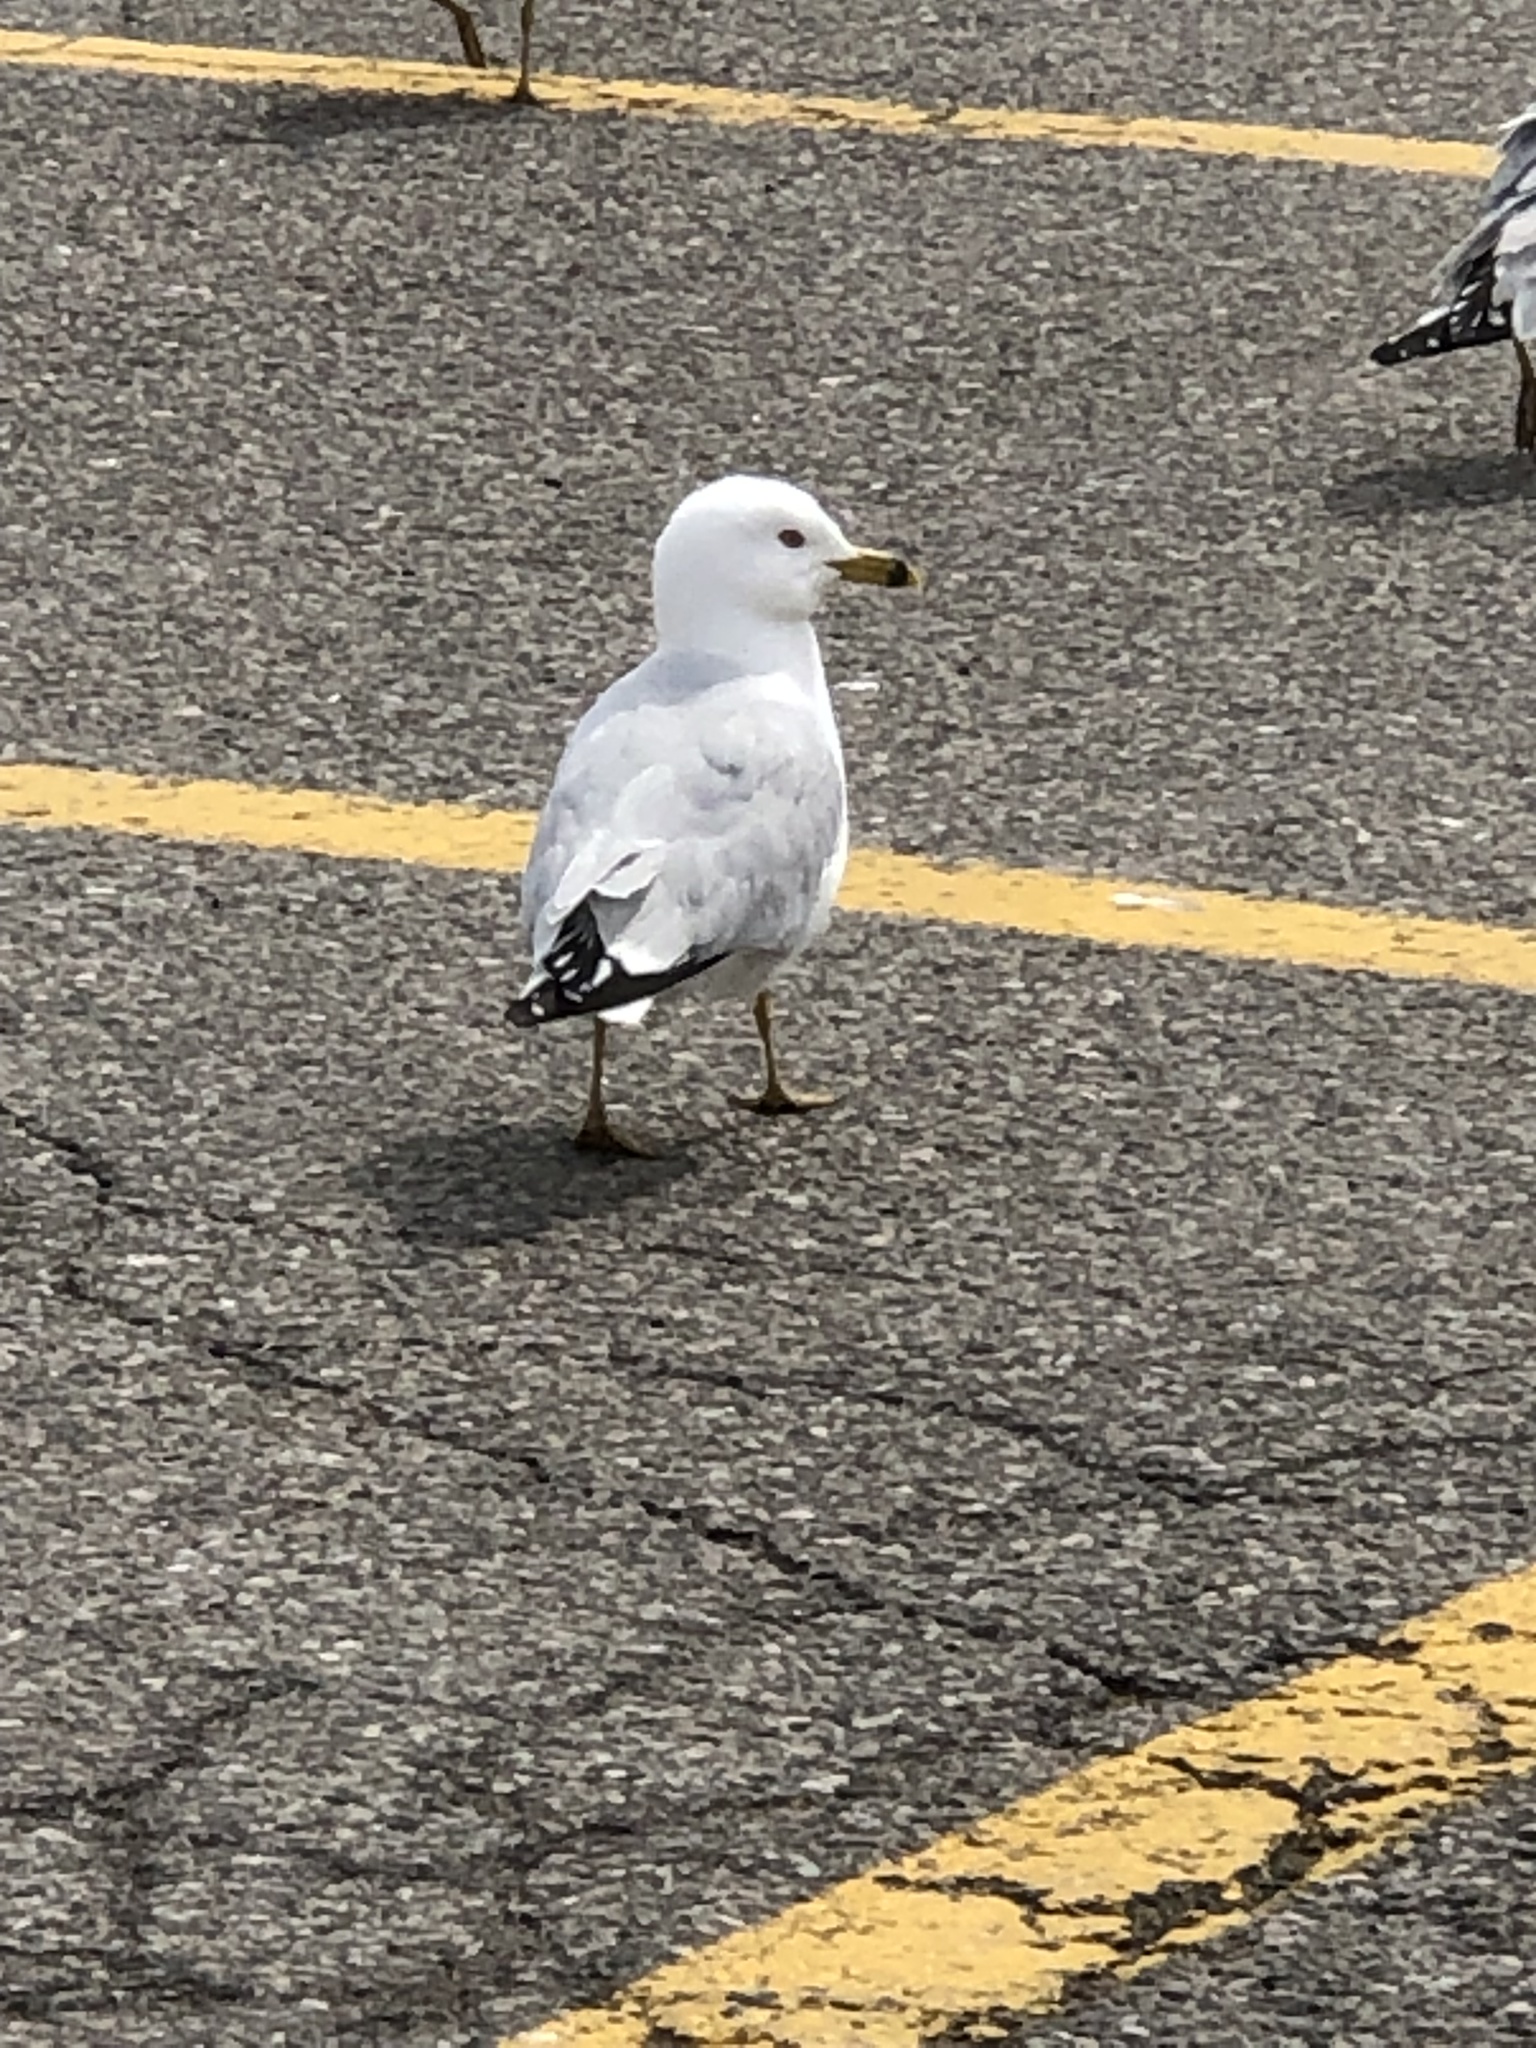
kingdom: Animalia
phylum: Chordata
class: Aves
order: Charadriiformes
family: Laridae
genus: Larus
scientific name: Larus delawarensis
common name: Ring-billed gull
